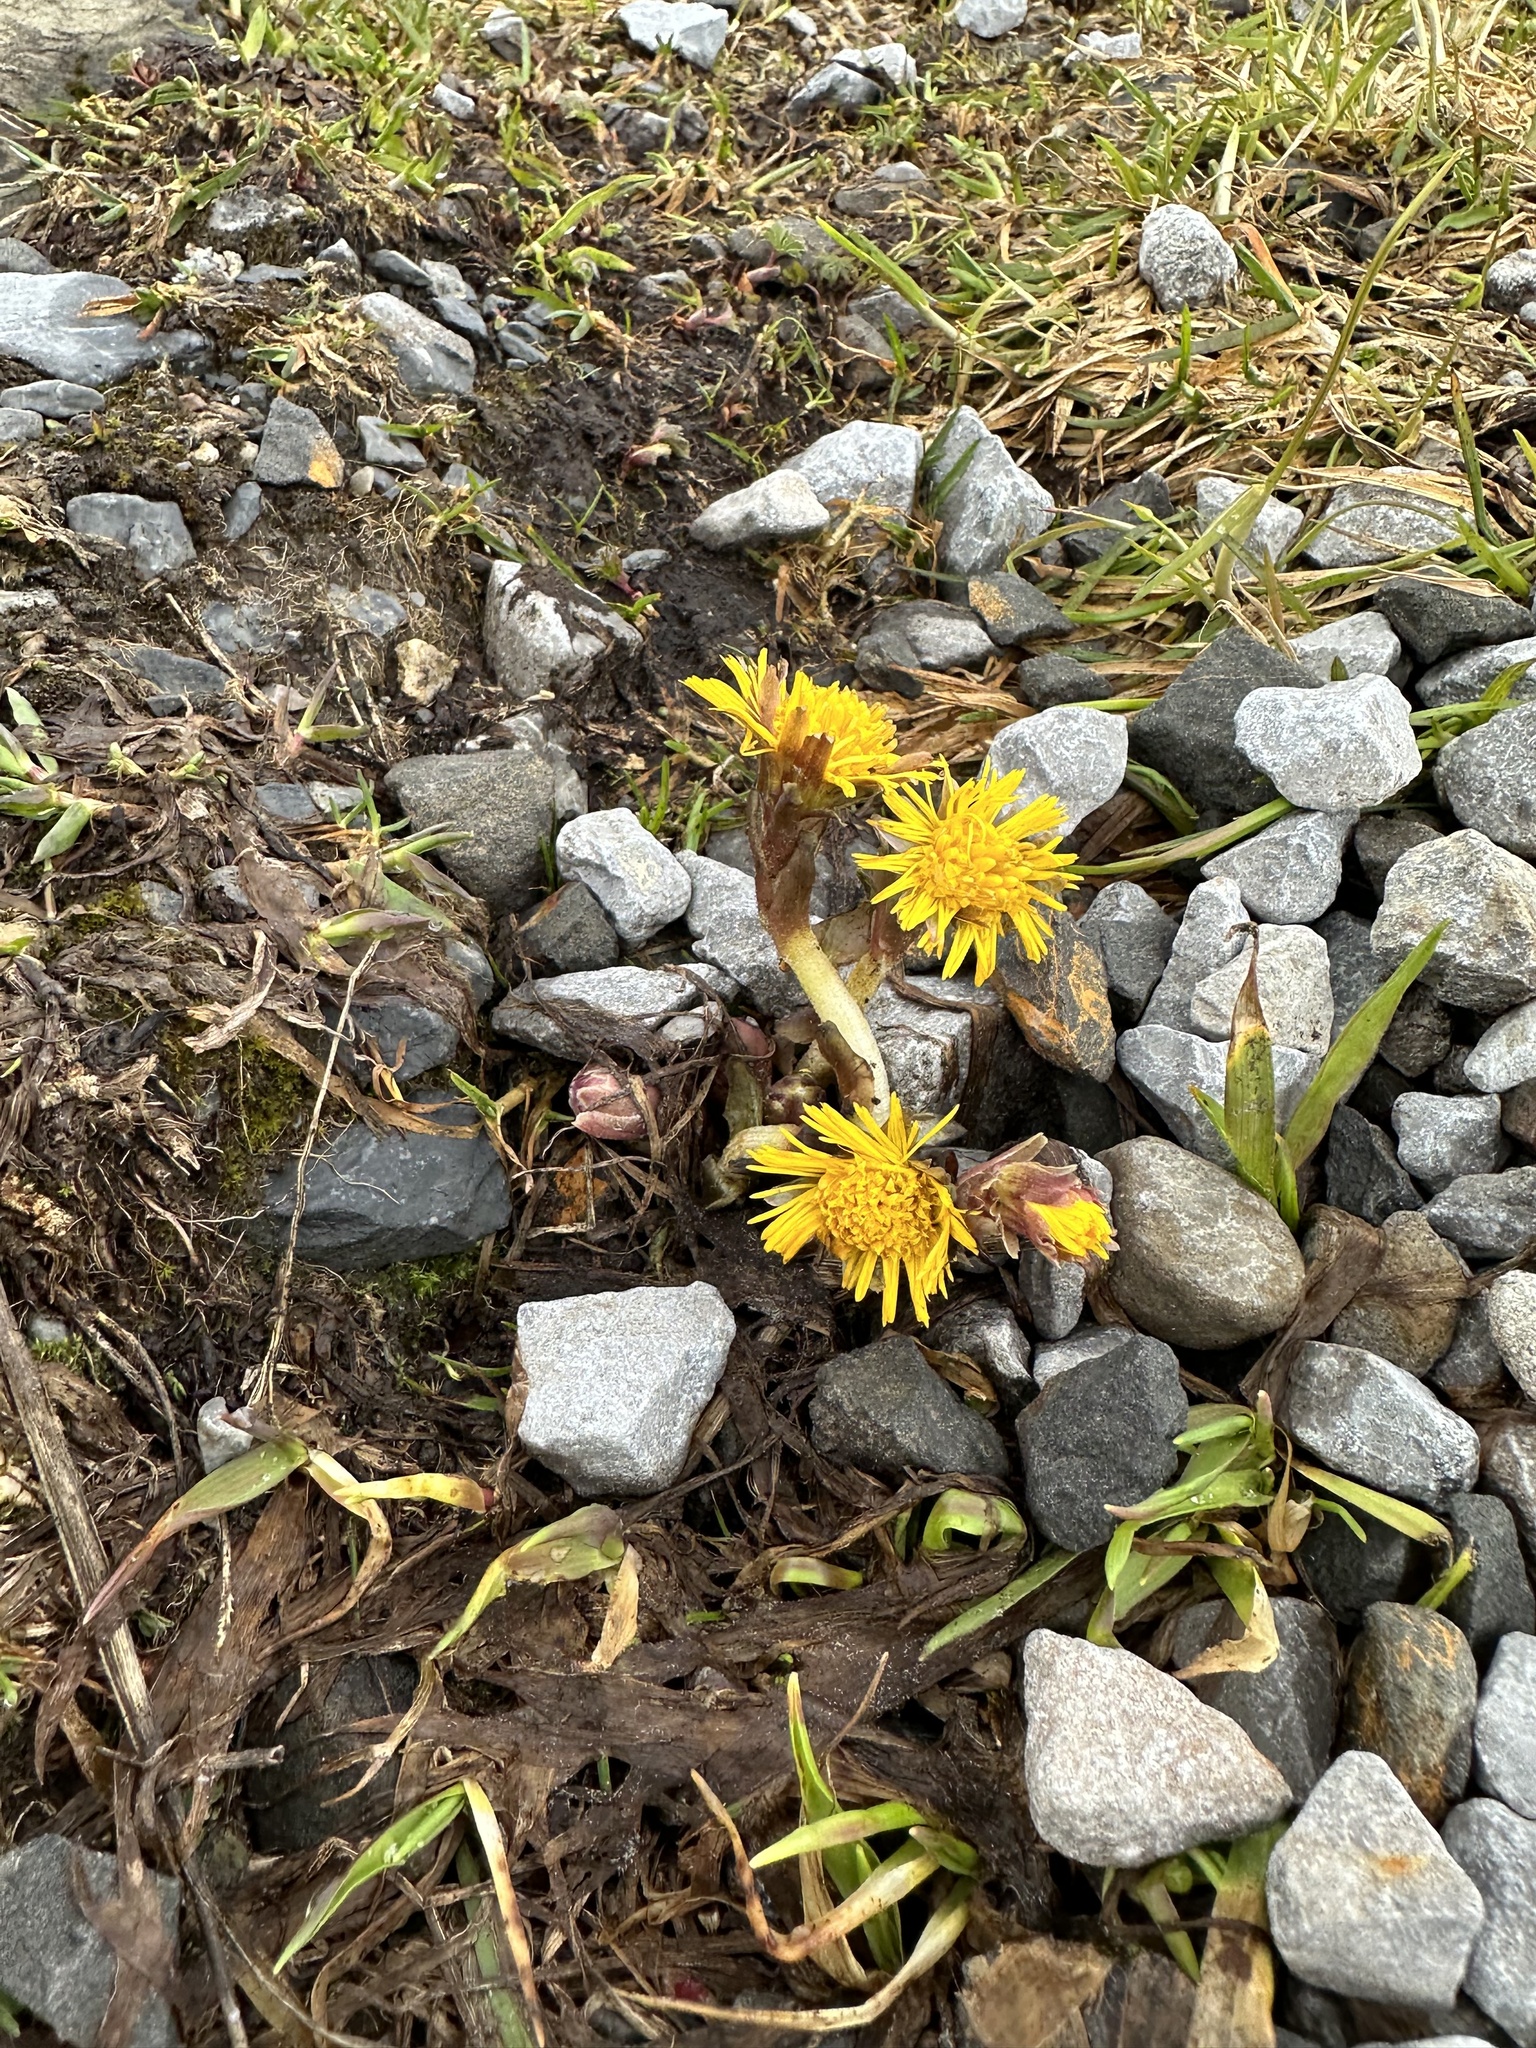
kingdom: Plantae
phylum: Tracheophyta
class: Magnoliopsida
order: Asterales
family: Asteraceae
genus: Tussilago
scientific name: Tussilago farfara
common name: Coltsfoot
